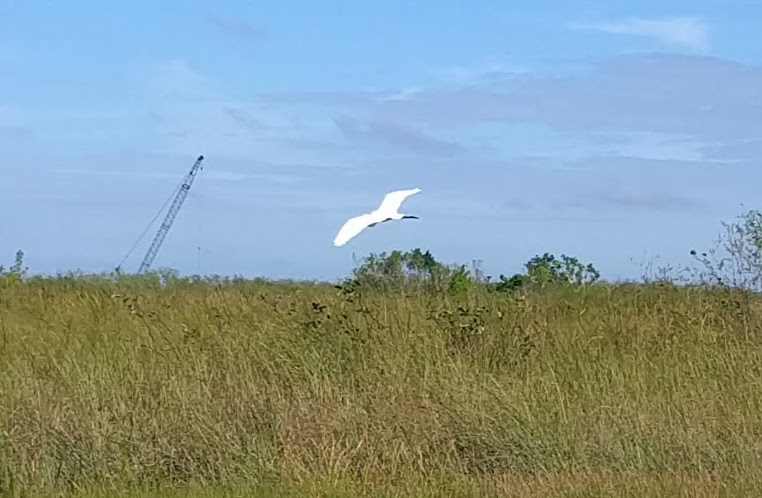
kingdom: Animalia
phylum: Chordata
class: Aves
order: Pelecaniformes
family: Ardeidae
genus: Ardea
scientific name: Ardea alba
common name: Great egret
